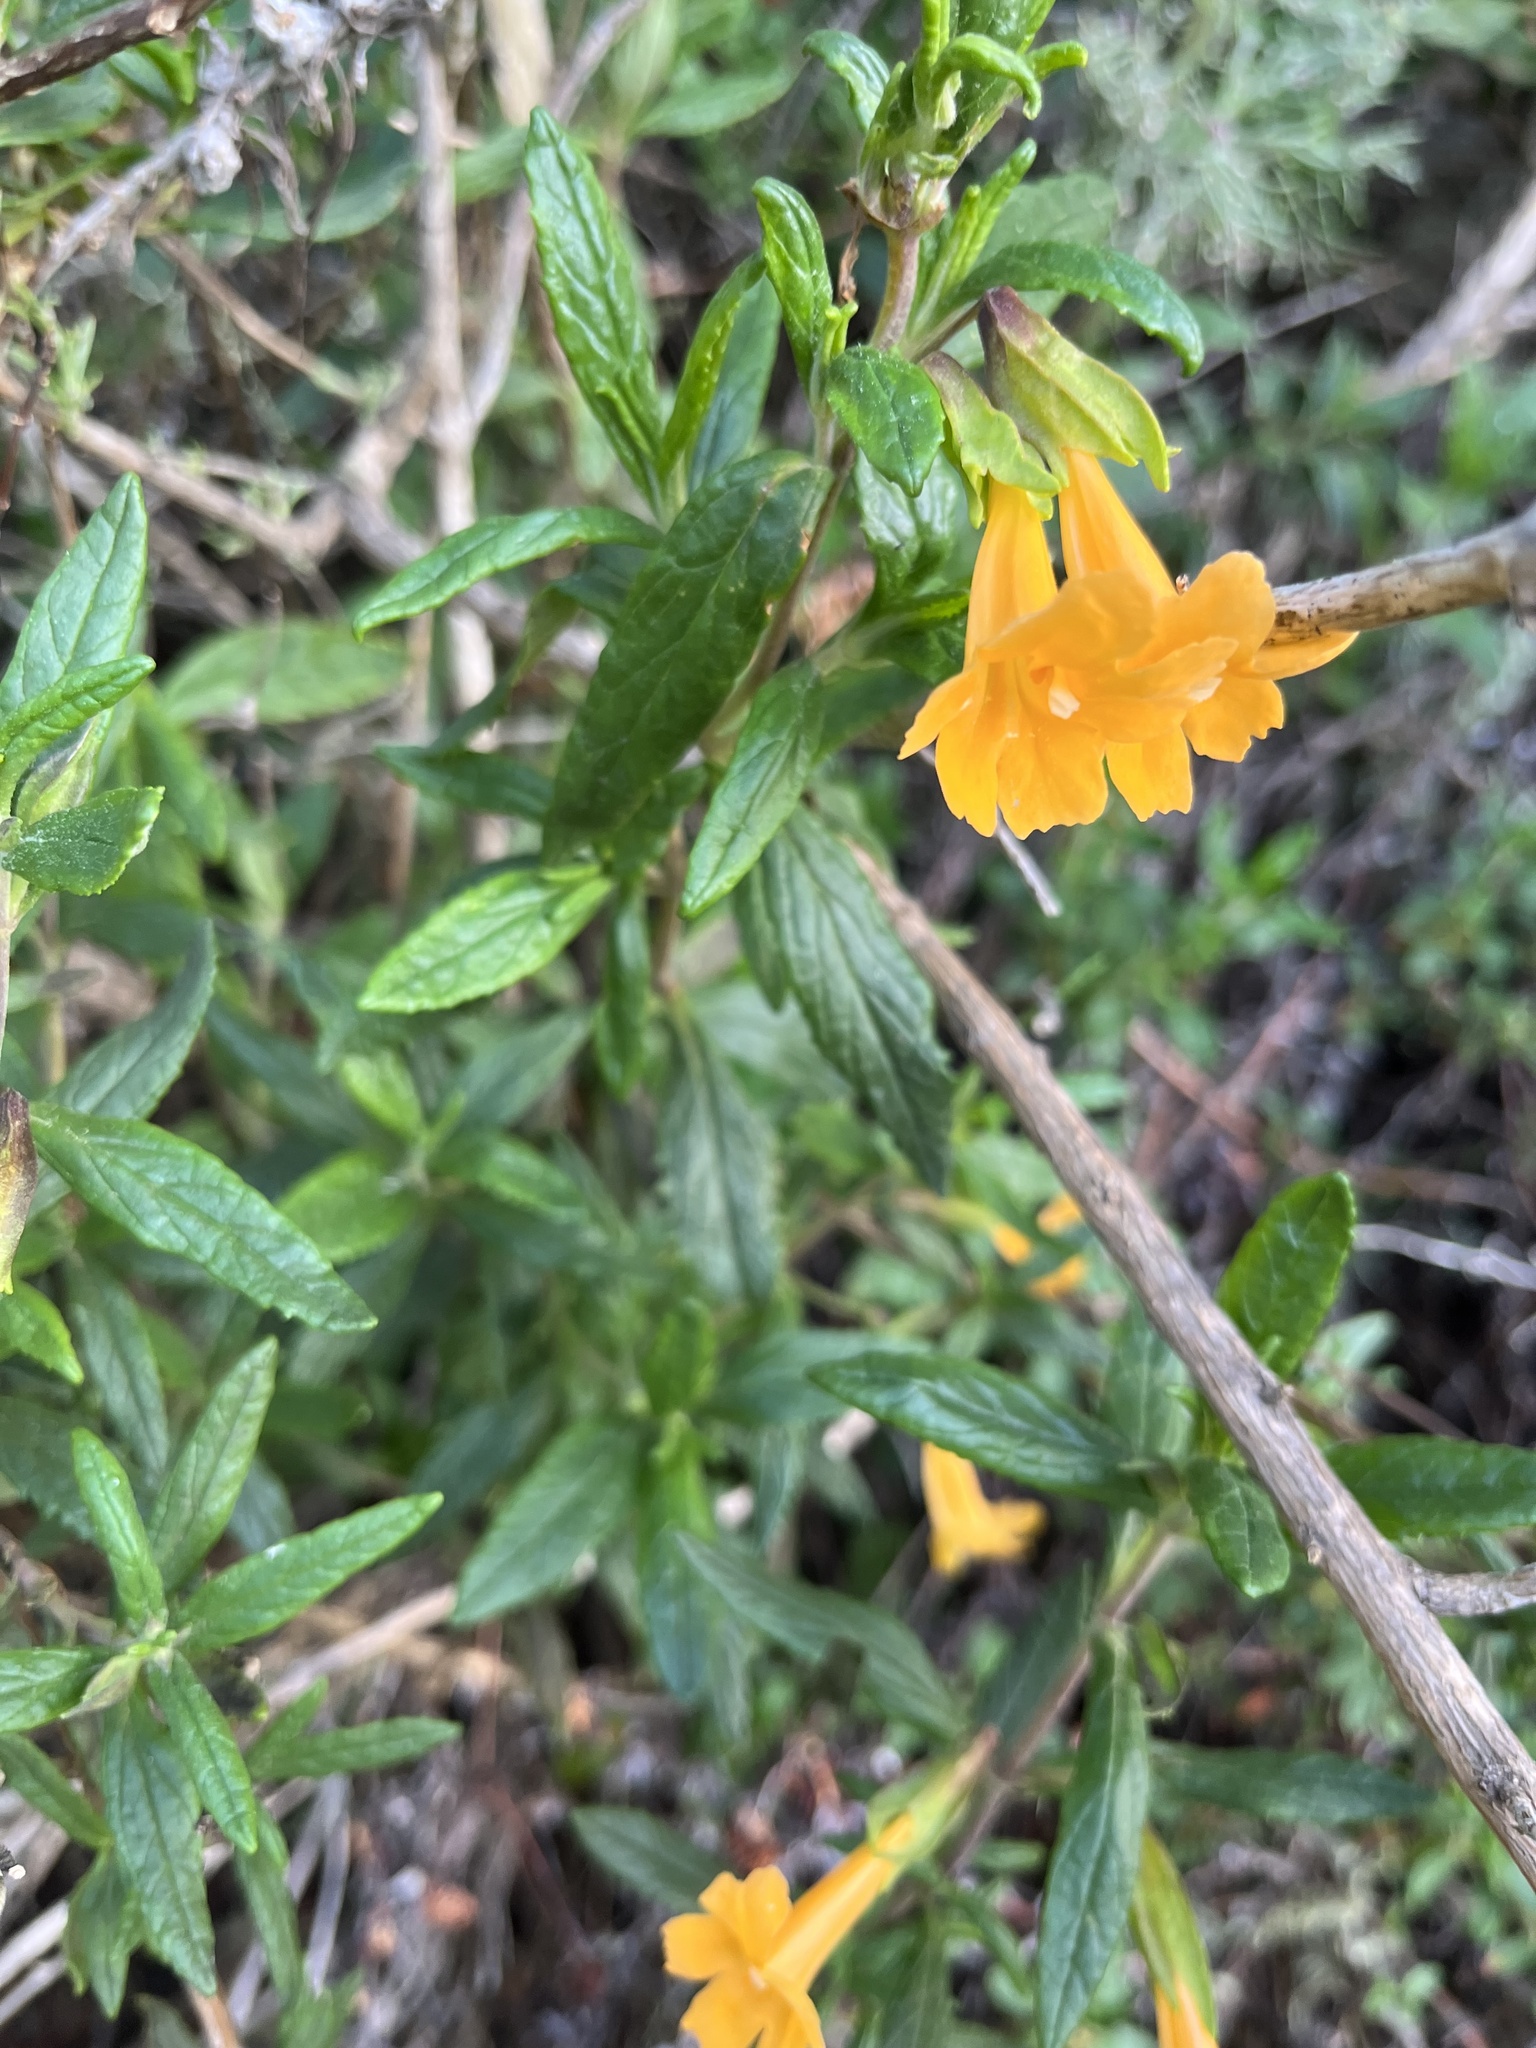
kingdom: Plantae
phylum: Tracheophyta
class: Magnoliopsida
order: Lamiales
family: Phrymaceae
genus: Diplacus
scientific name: Diplacus aurantiacus
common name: Bush monkey-flower
